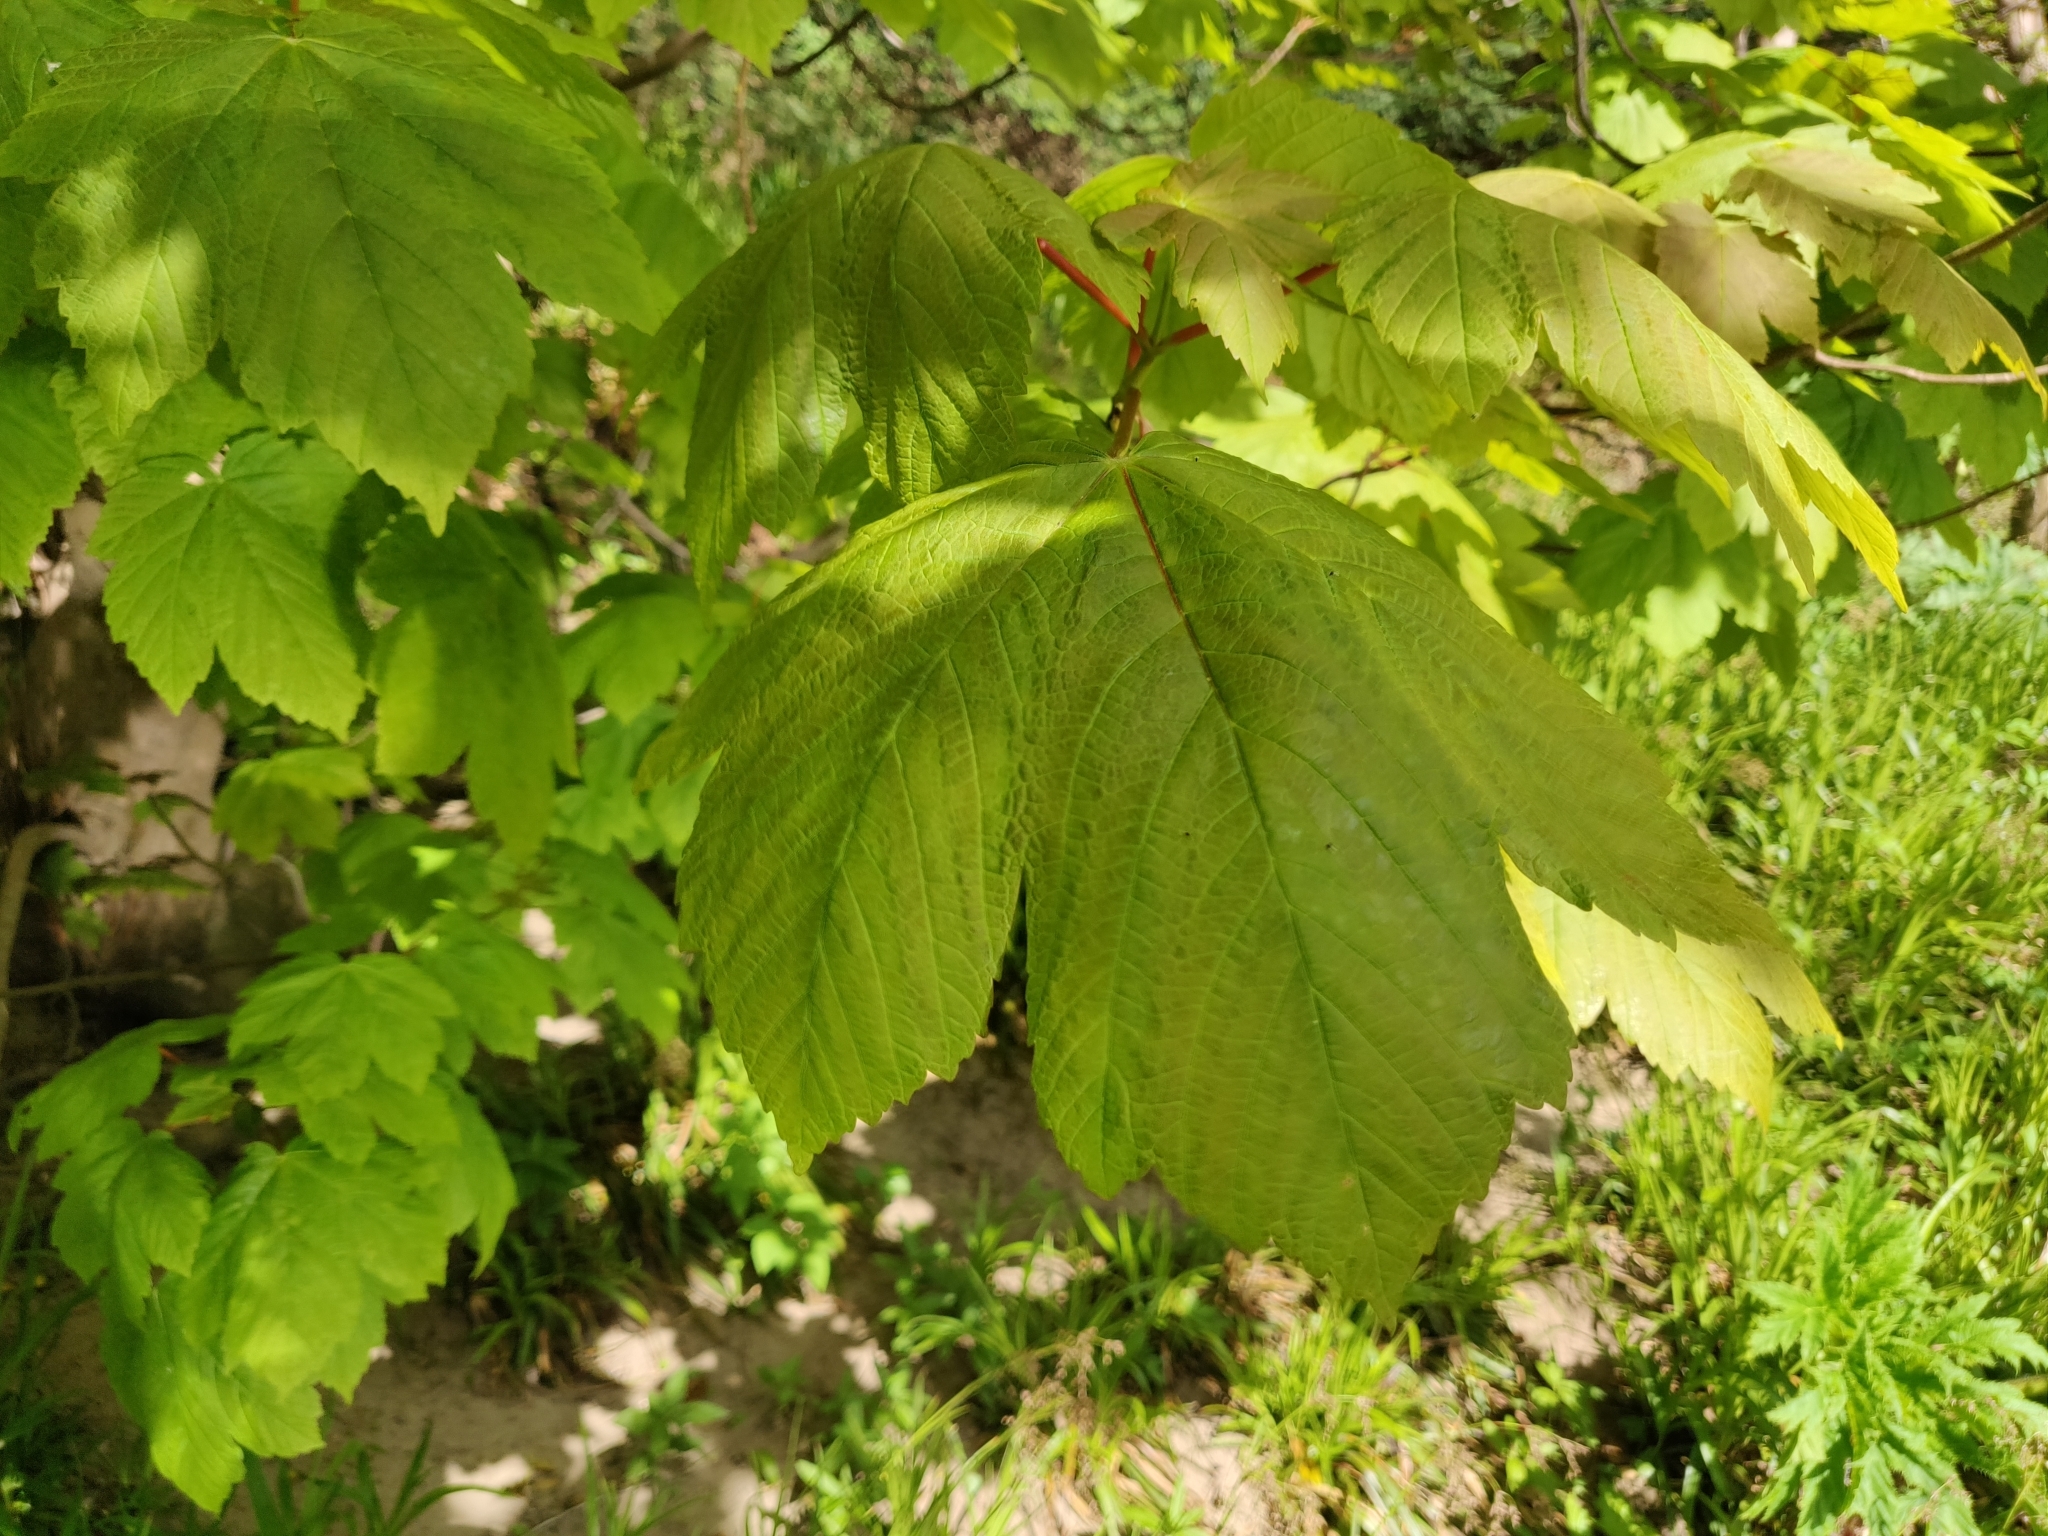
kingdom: Plantae
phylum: Tracheophyta
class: Magnoliopsida
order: Sapindales
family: Sapindaceae
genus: Acer
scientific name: Acer pseudoplatanus
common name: Sycamore
